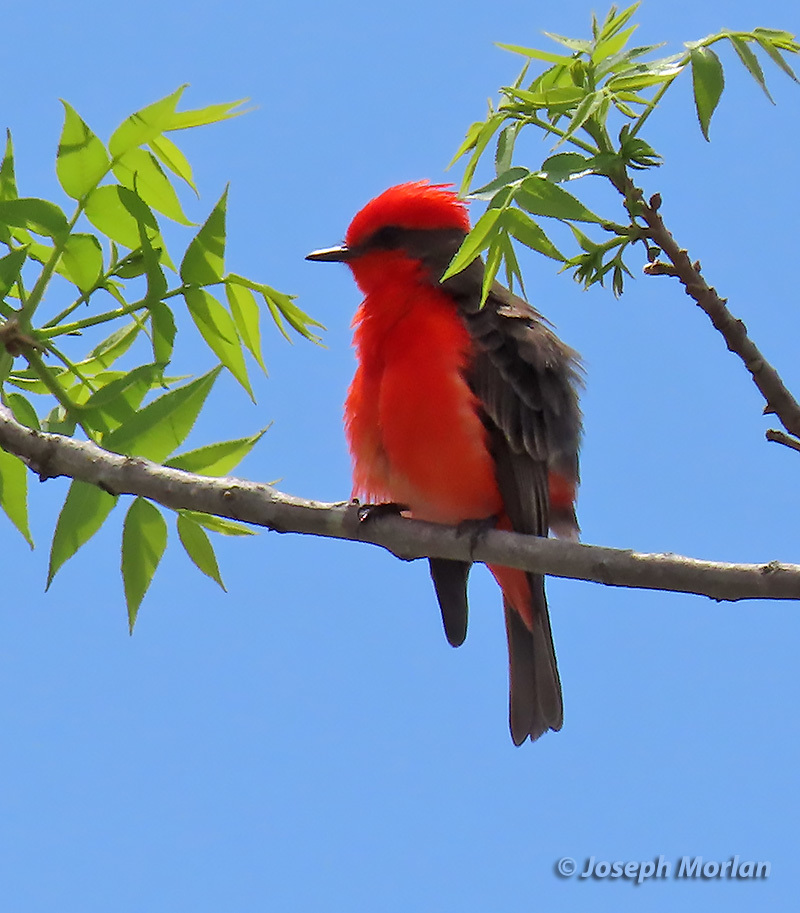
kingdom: Animalia
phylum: Chordata
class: Aves
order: Passeriformes
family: Tyrannidae
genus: Pyrocephalus
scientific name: Pyrocephalus rubinus
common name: Vermilion flycatcher
